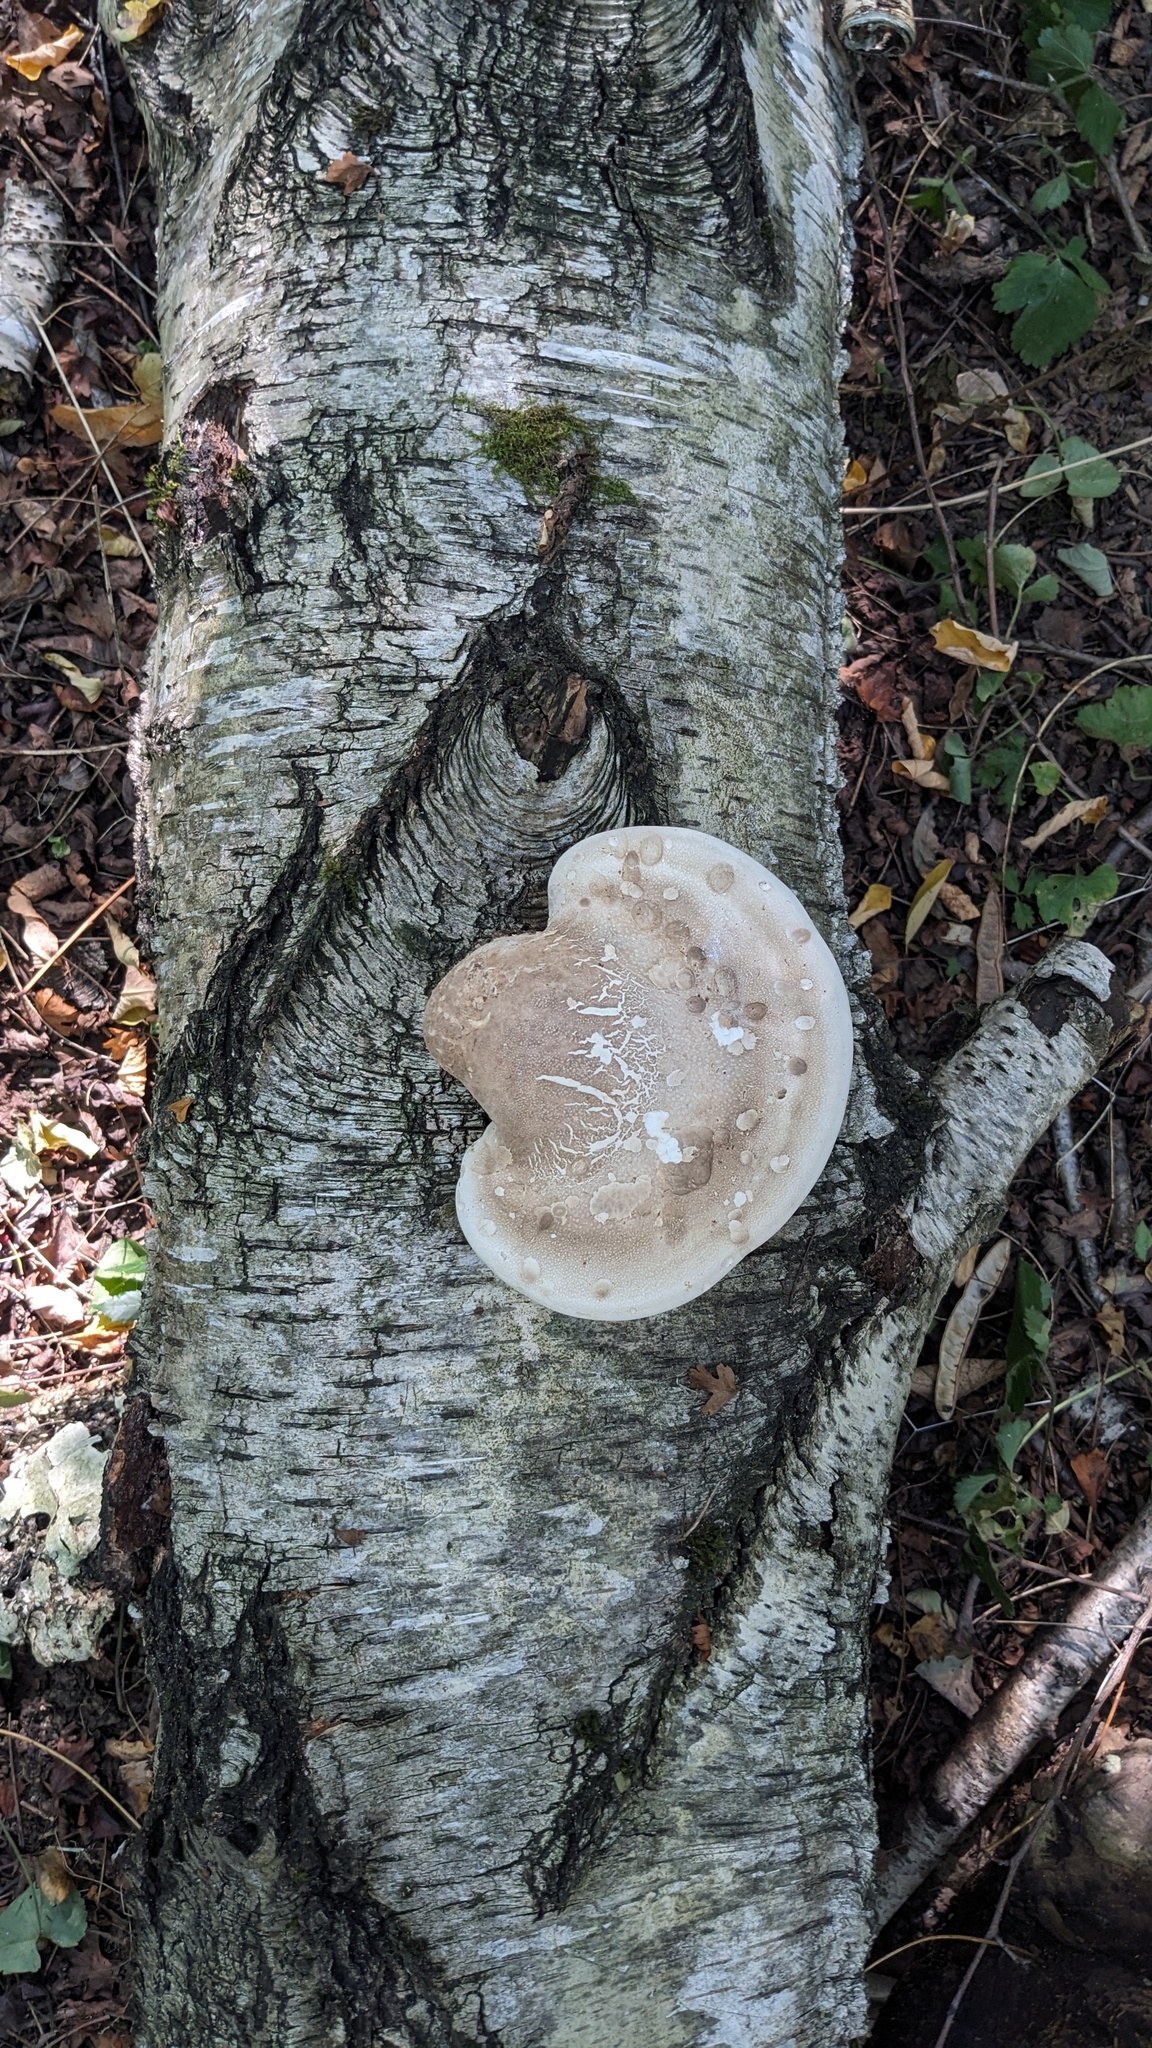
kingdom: Fungi
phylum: Basidiomycota
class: Agaricomycetes
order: Polyporales
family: Fomitopsidaceae
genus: Fomitopsis
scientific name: Fomitopsis betulina
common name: Birch polypore
